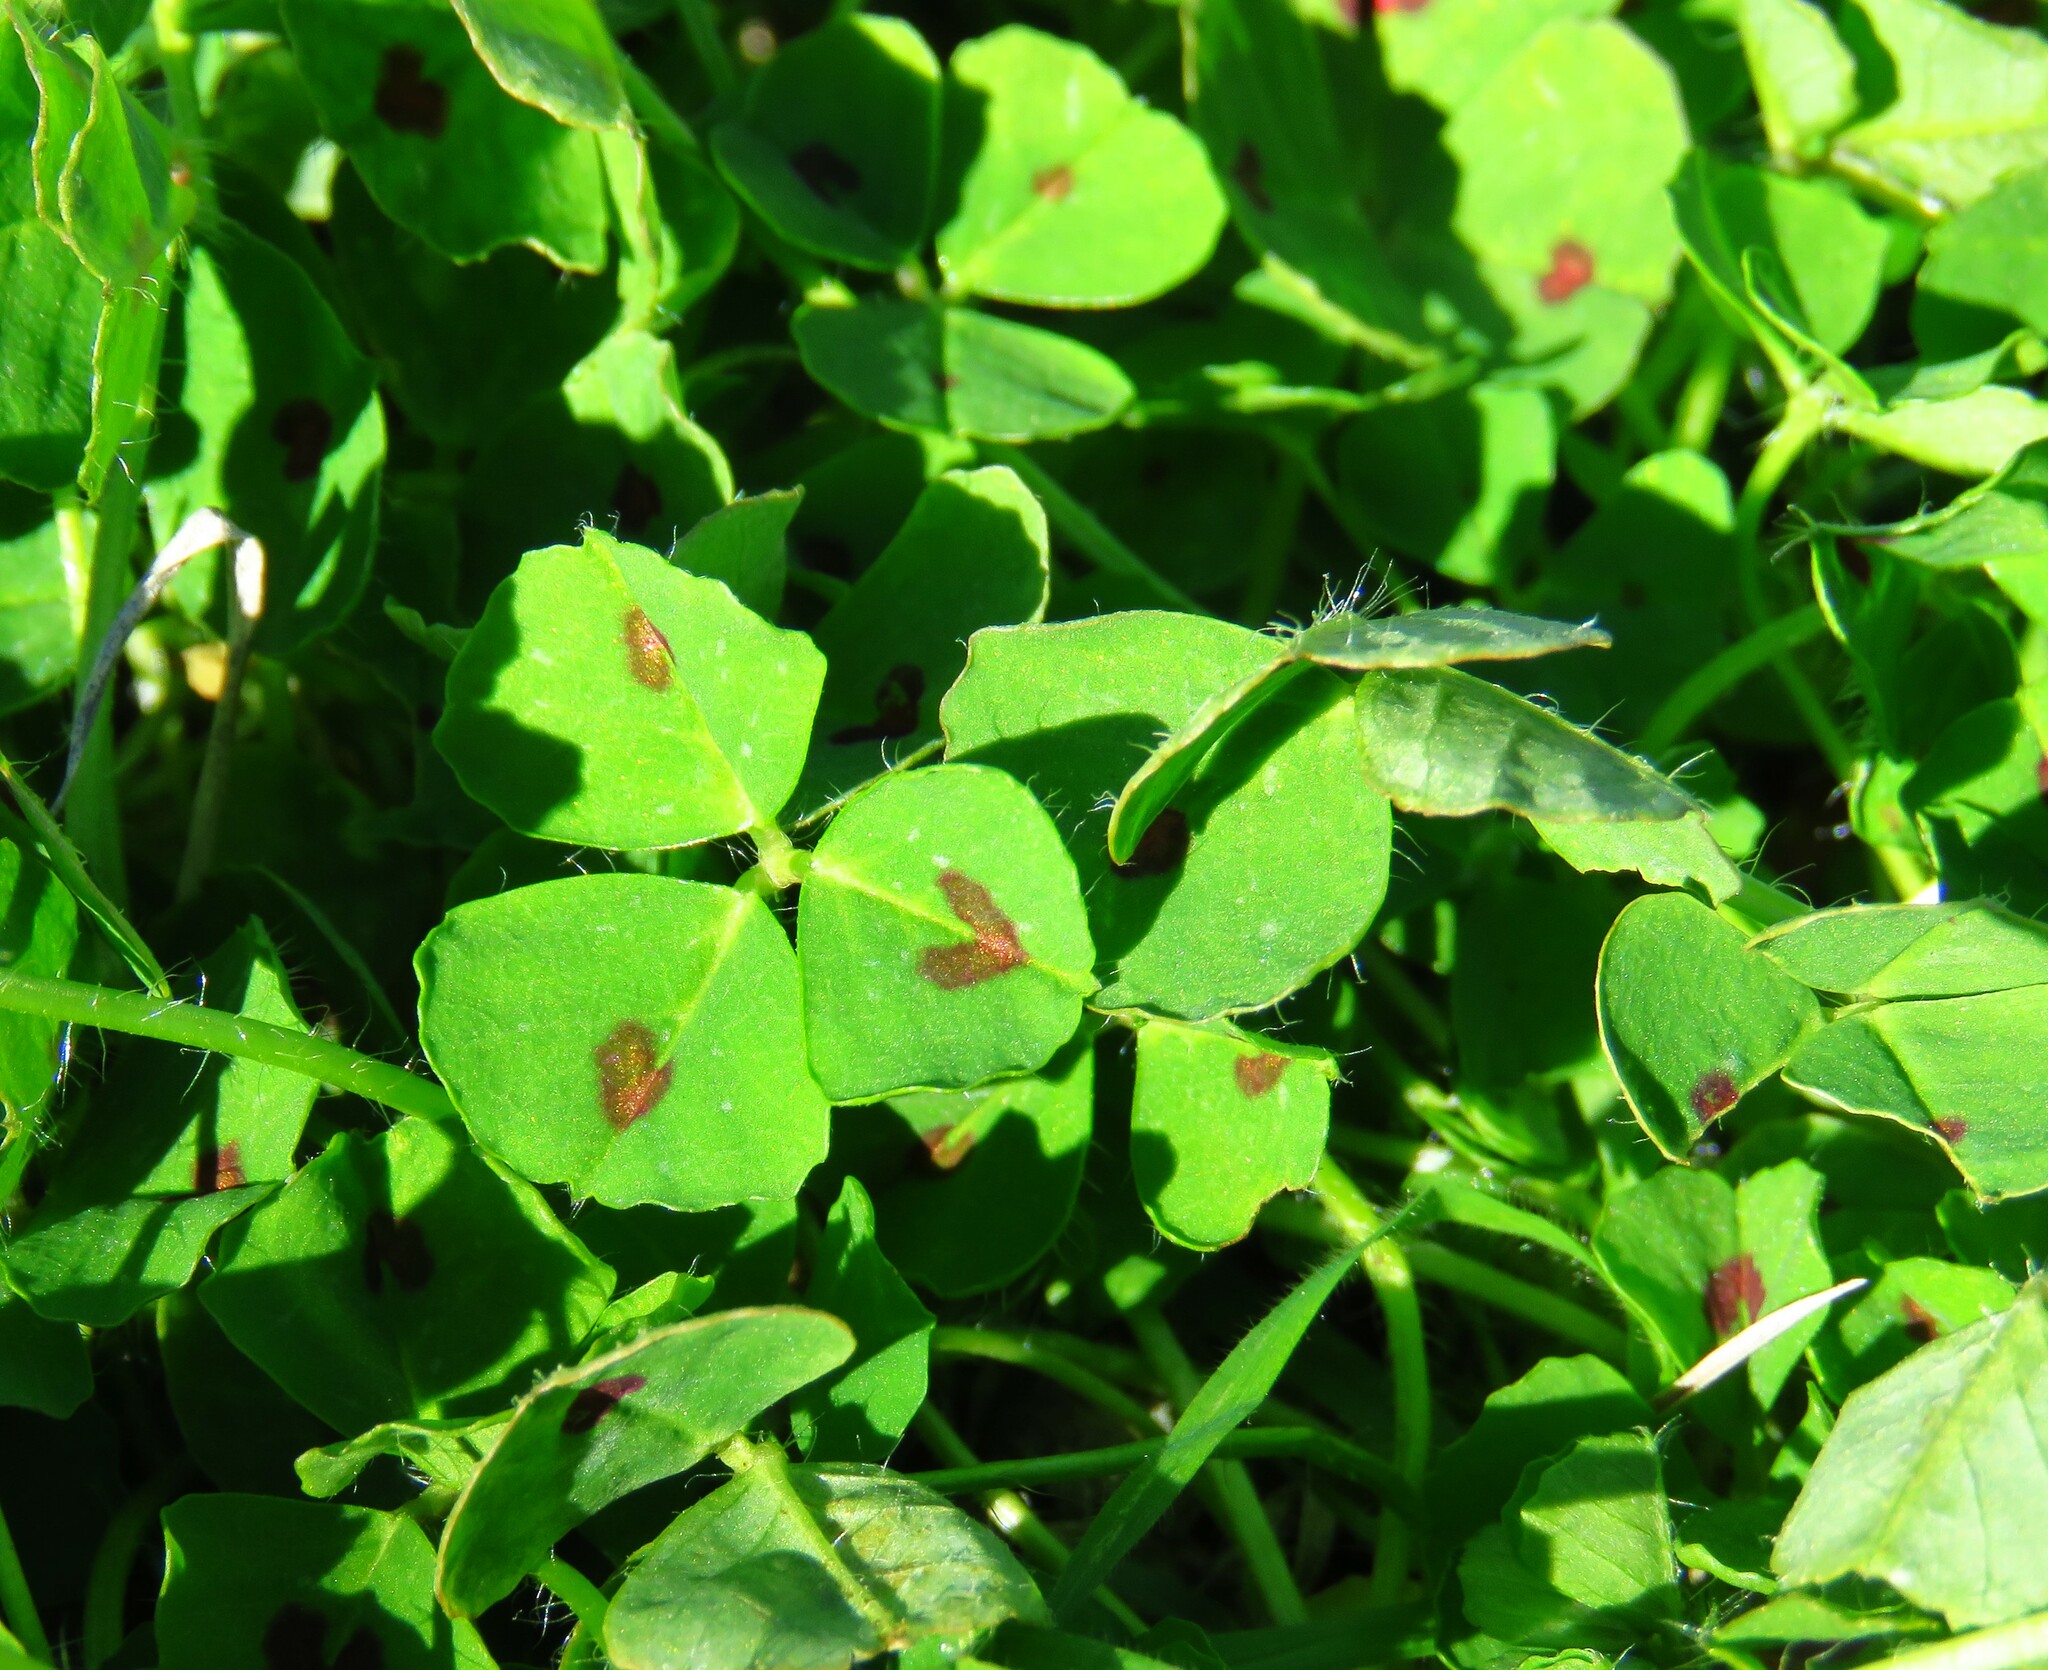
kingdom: Plantae
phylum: Tracheophyta
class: Magnoliopsida
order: Fabales
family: Fabaceae
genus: Medicago
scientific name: Medicago arabica
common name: Spotted medick
